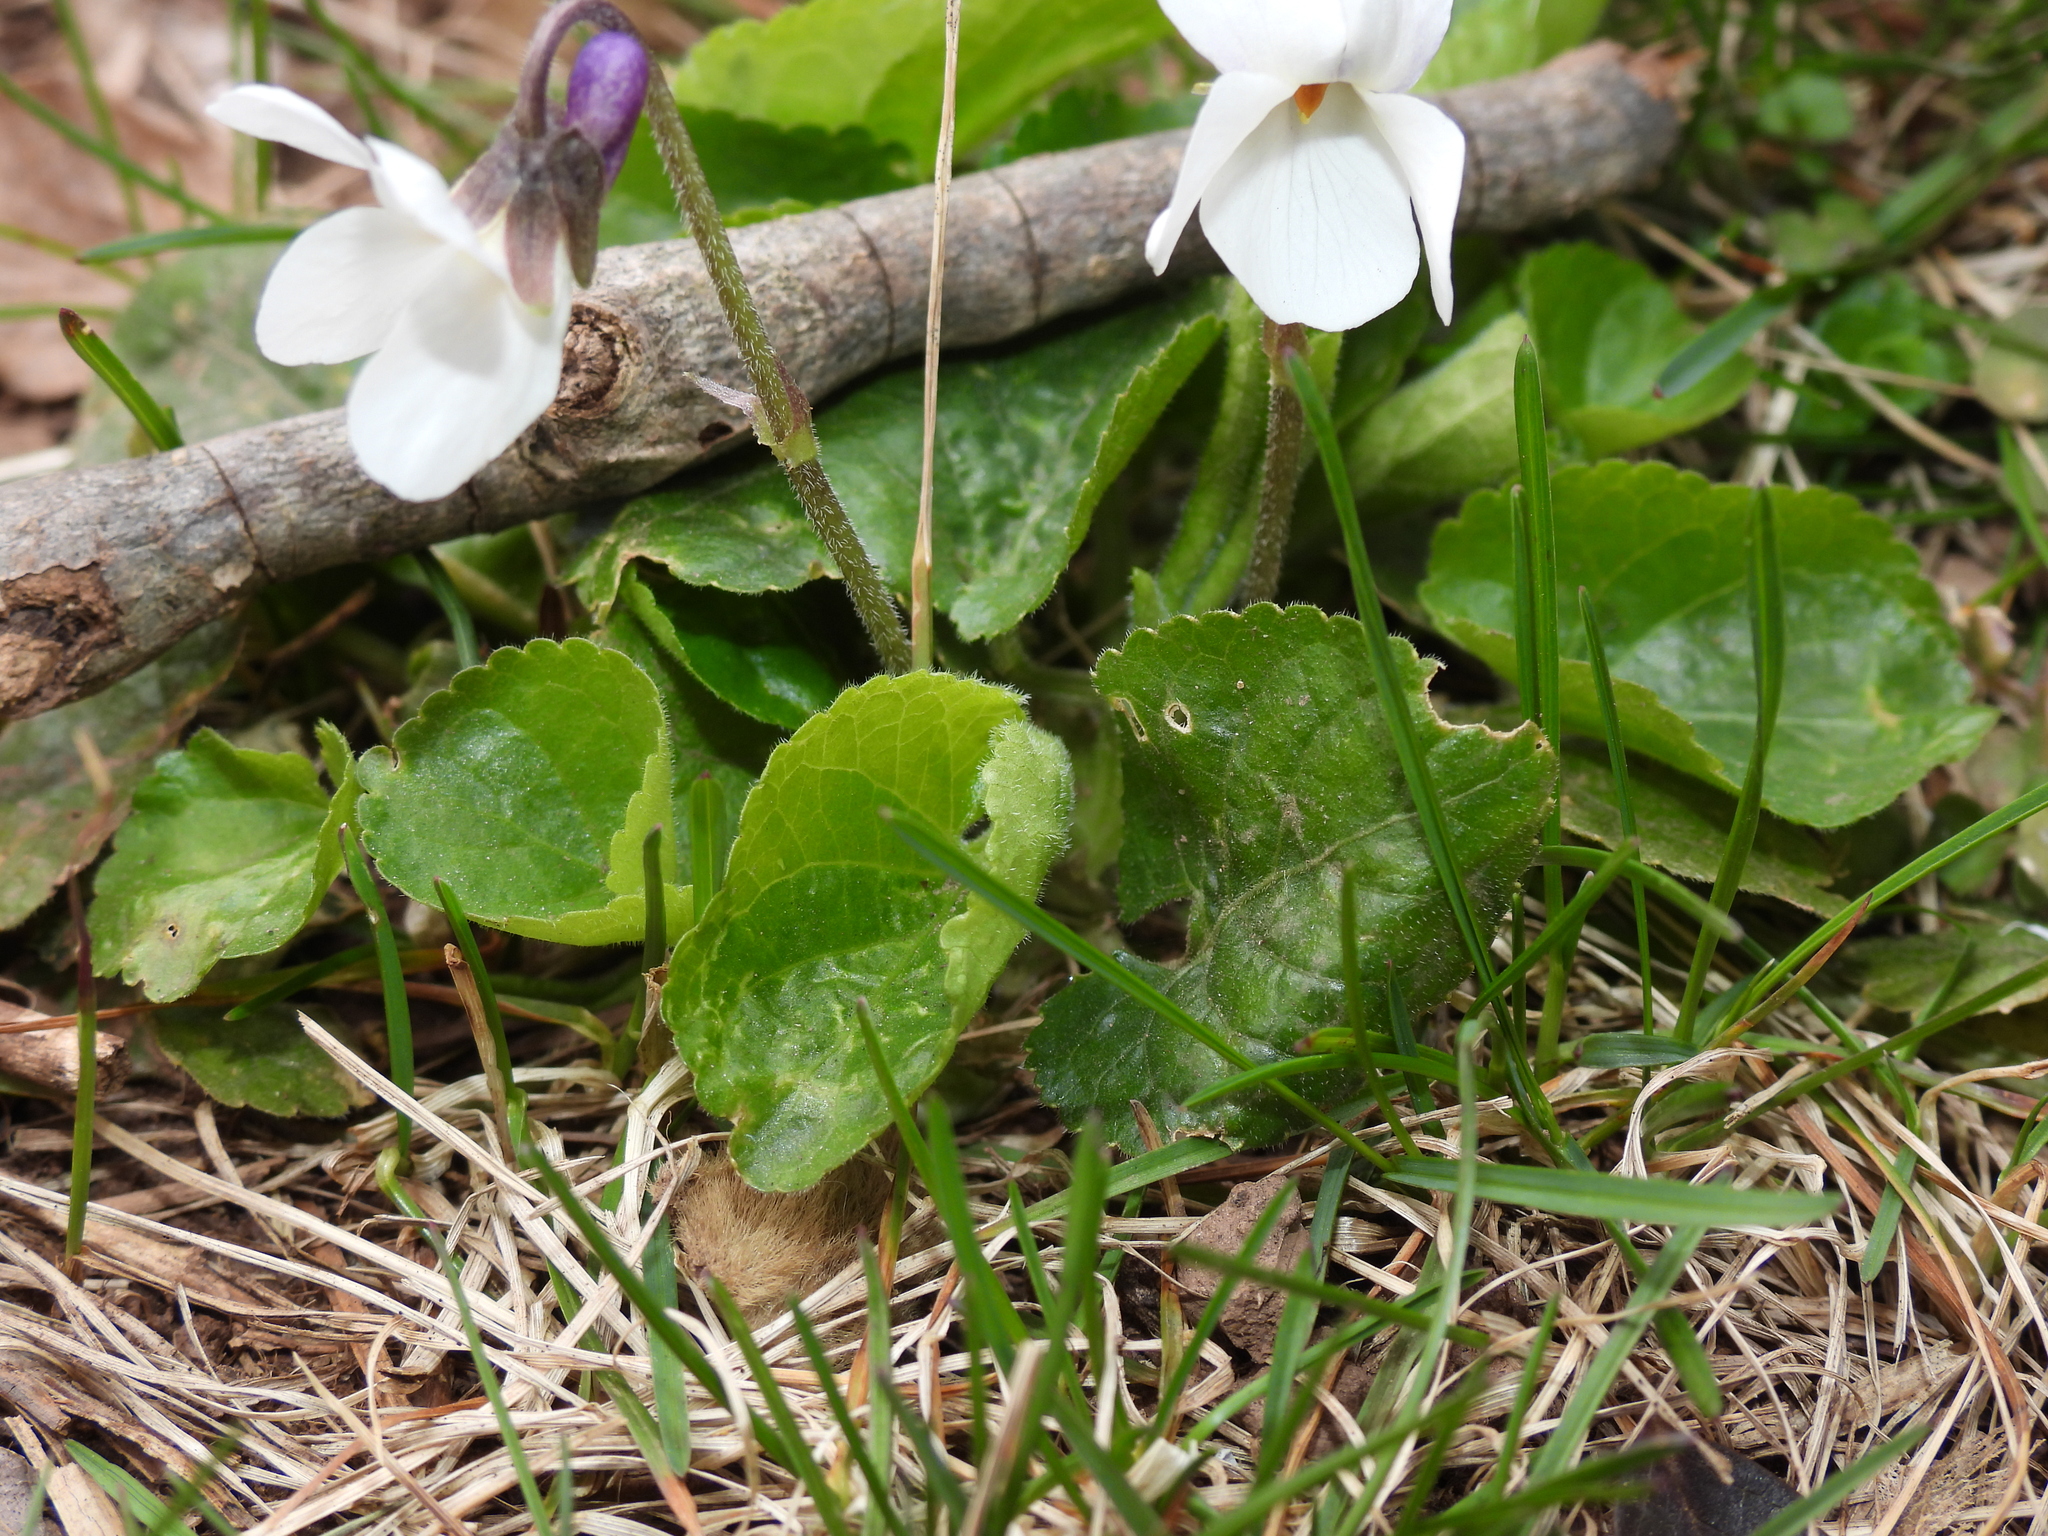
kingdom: Plantae
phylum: Tracheophyta
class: Magnoliopsida
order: Malpighiales
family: Violaceae
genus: Viola
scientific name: Viola odorata
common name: Sweet violet
